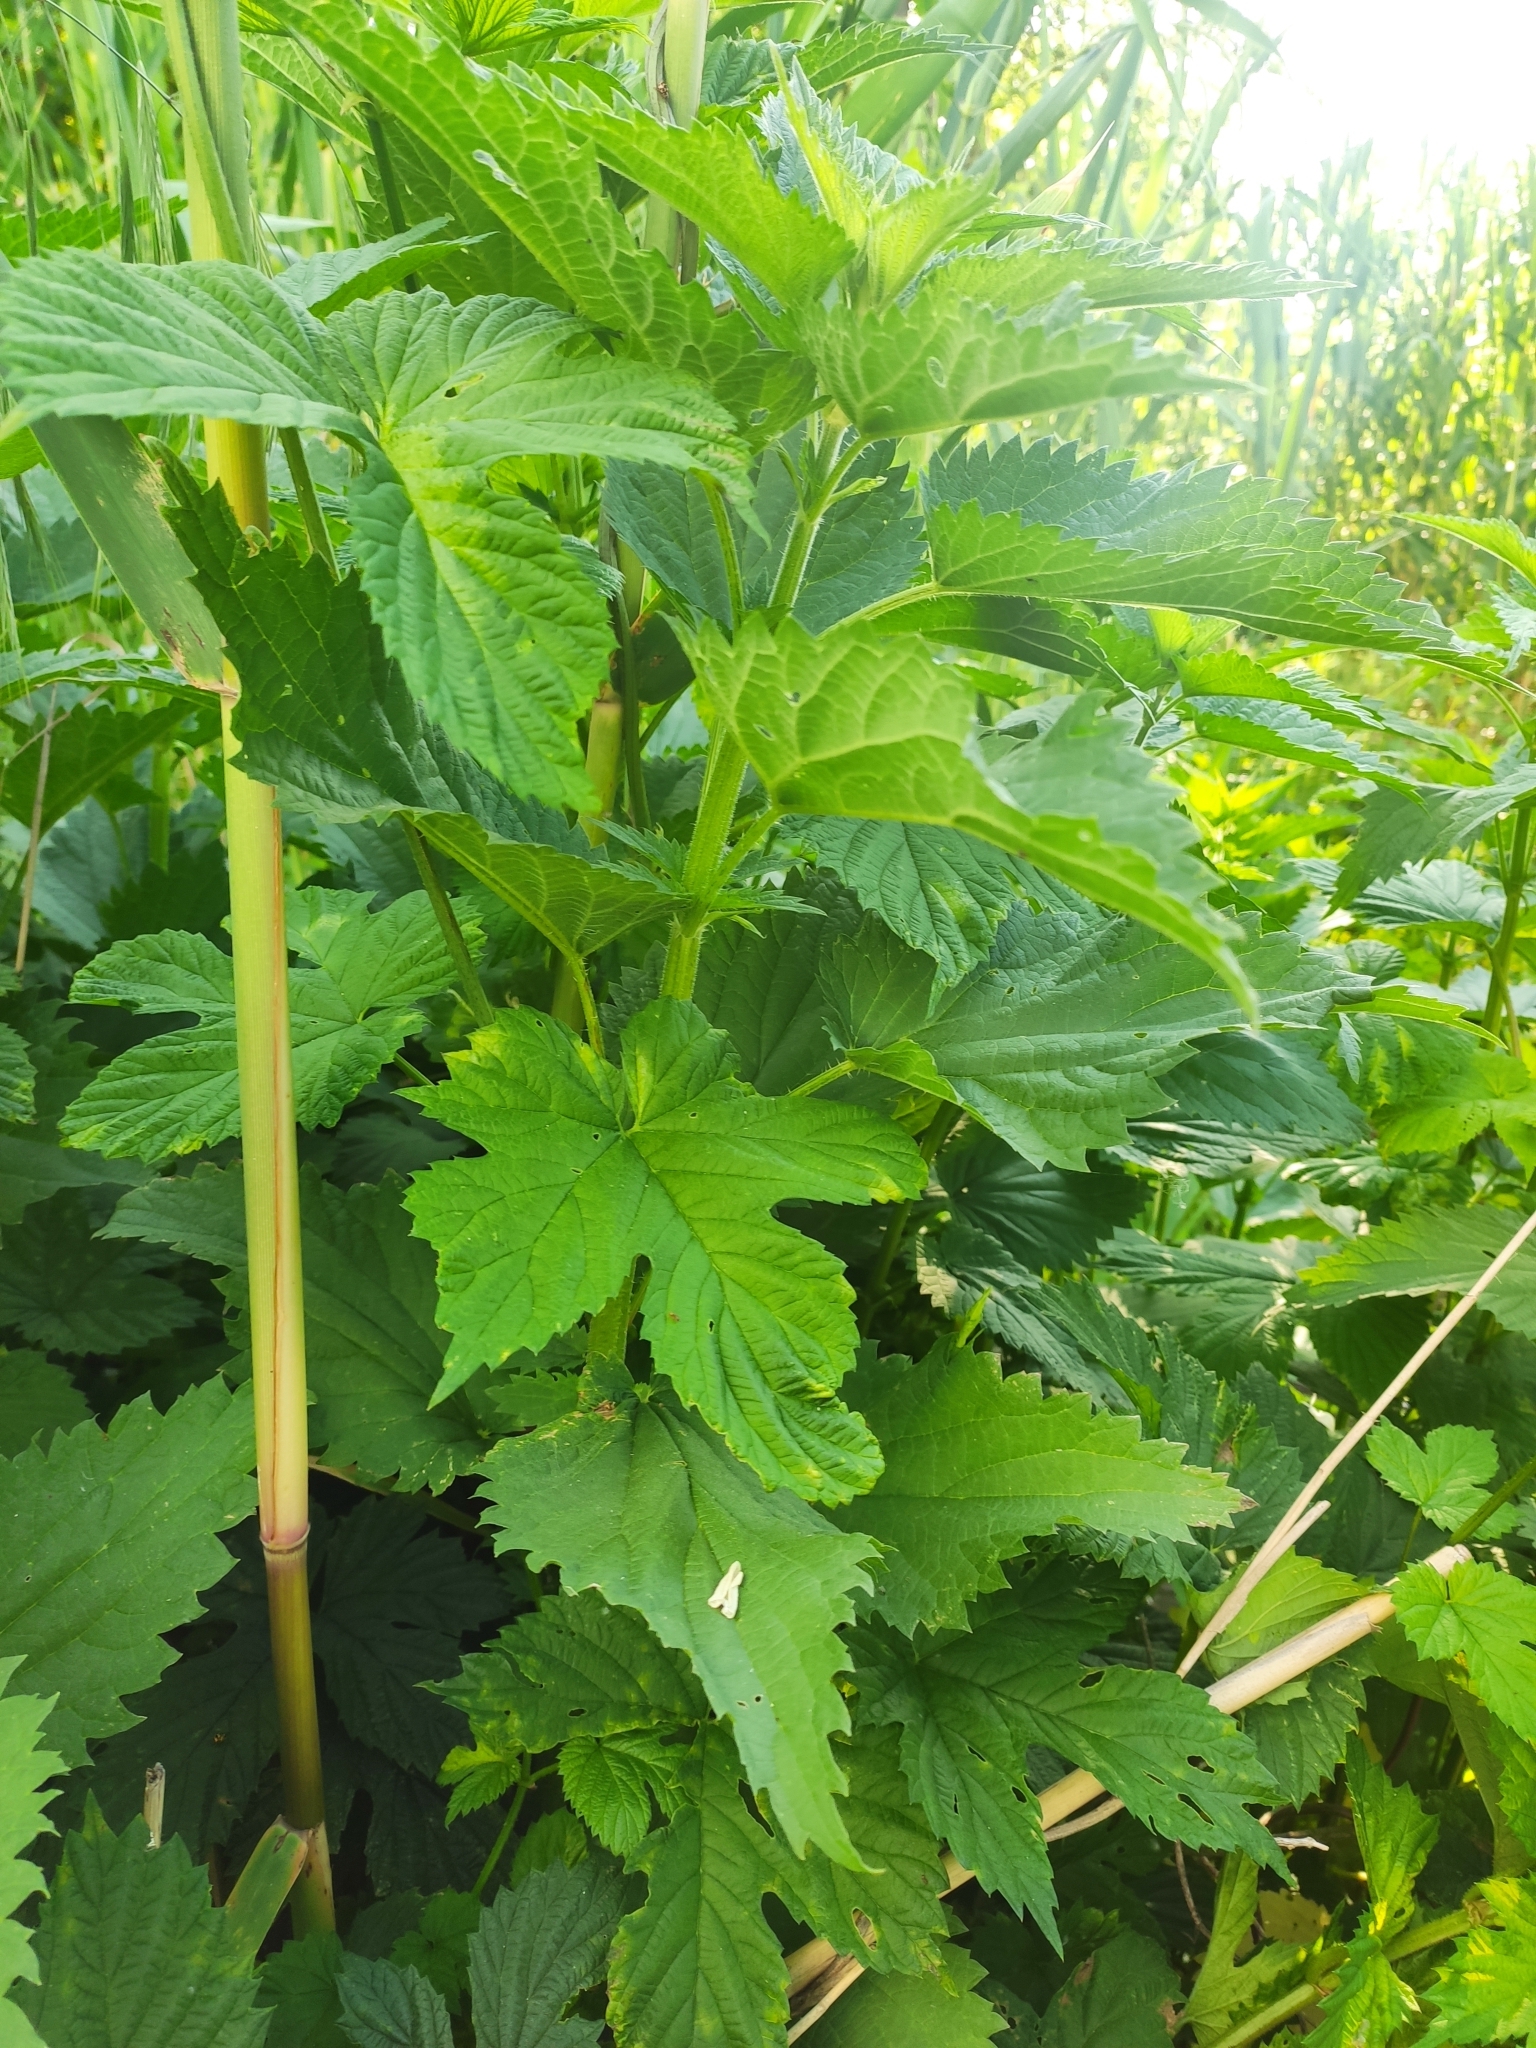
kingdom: Plantae
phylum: Tracheophyta
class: Magnoliopsida
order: Rosales
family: Urticaceae
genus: Urtica
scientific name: Urtica dioica
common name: Common nettle
